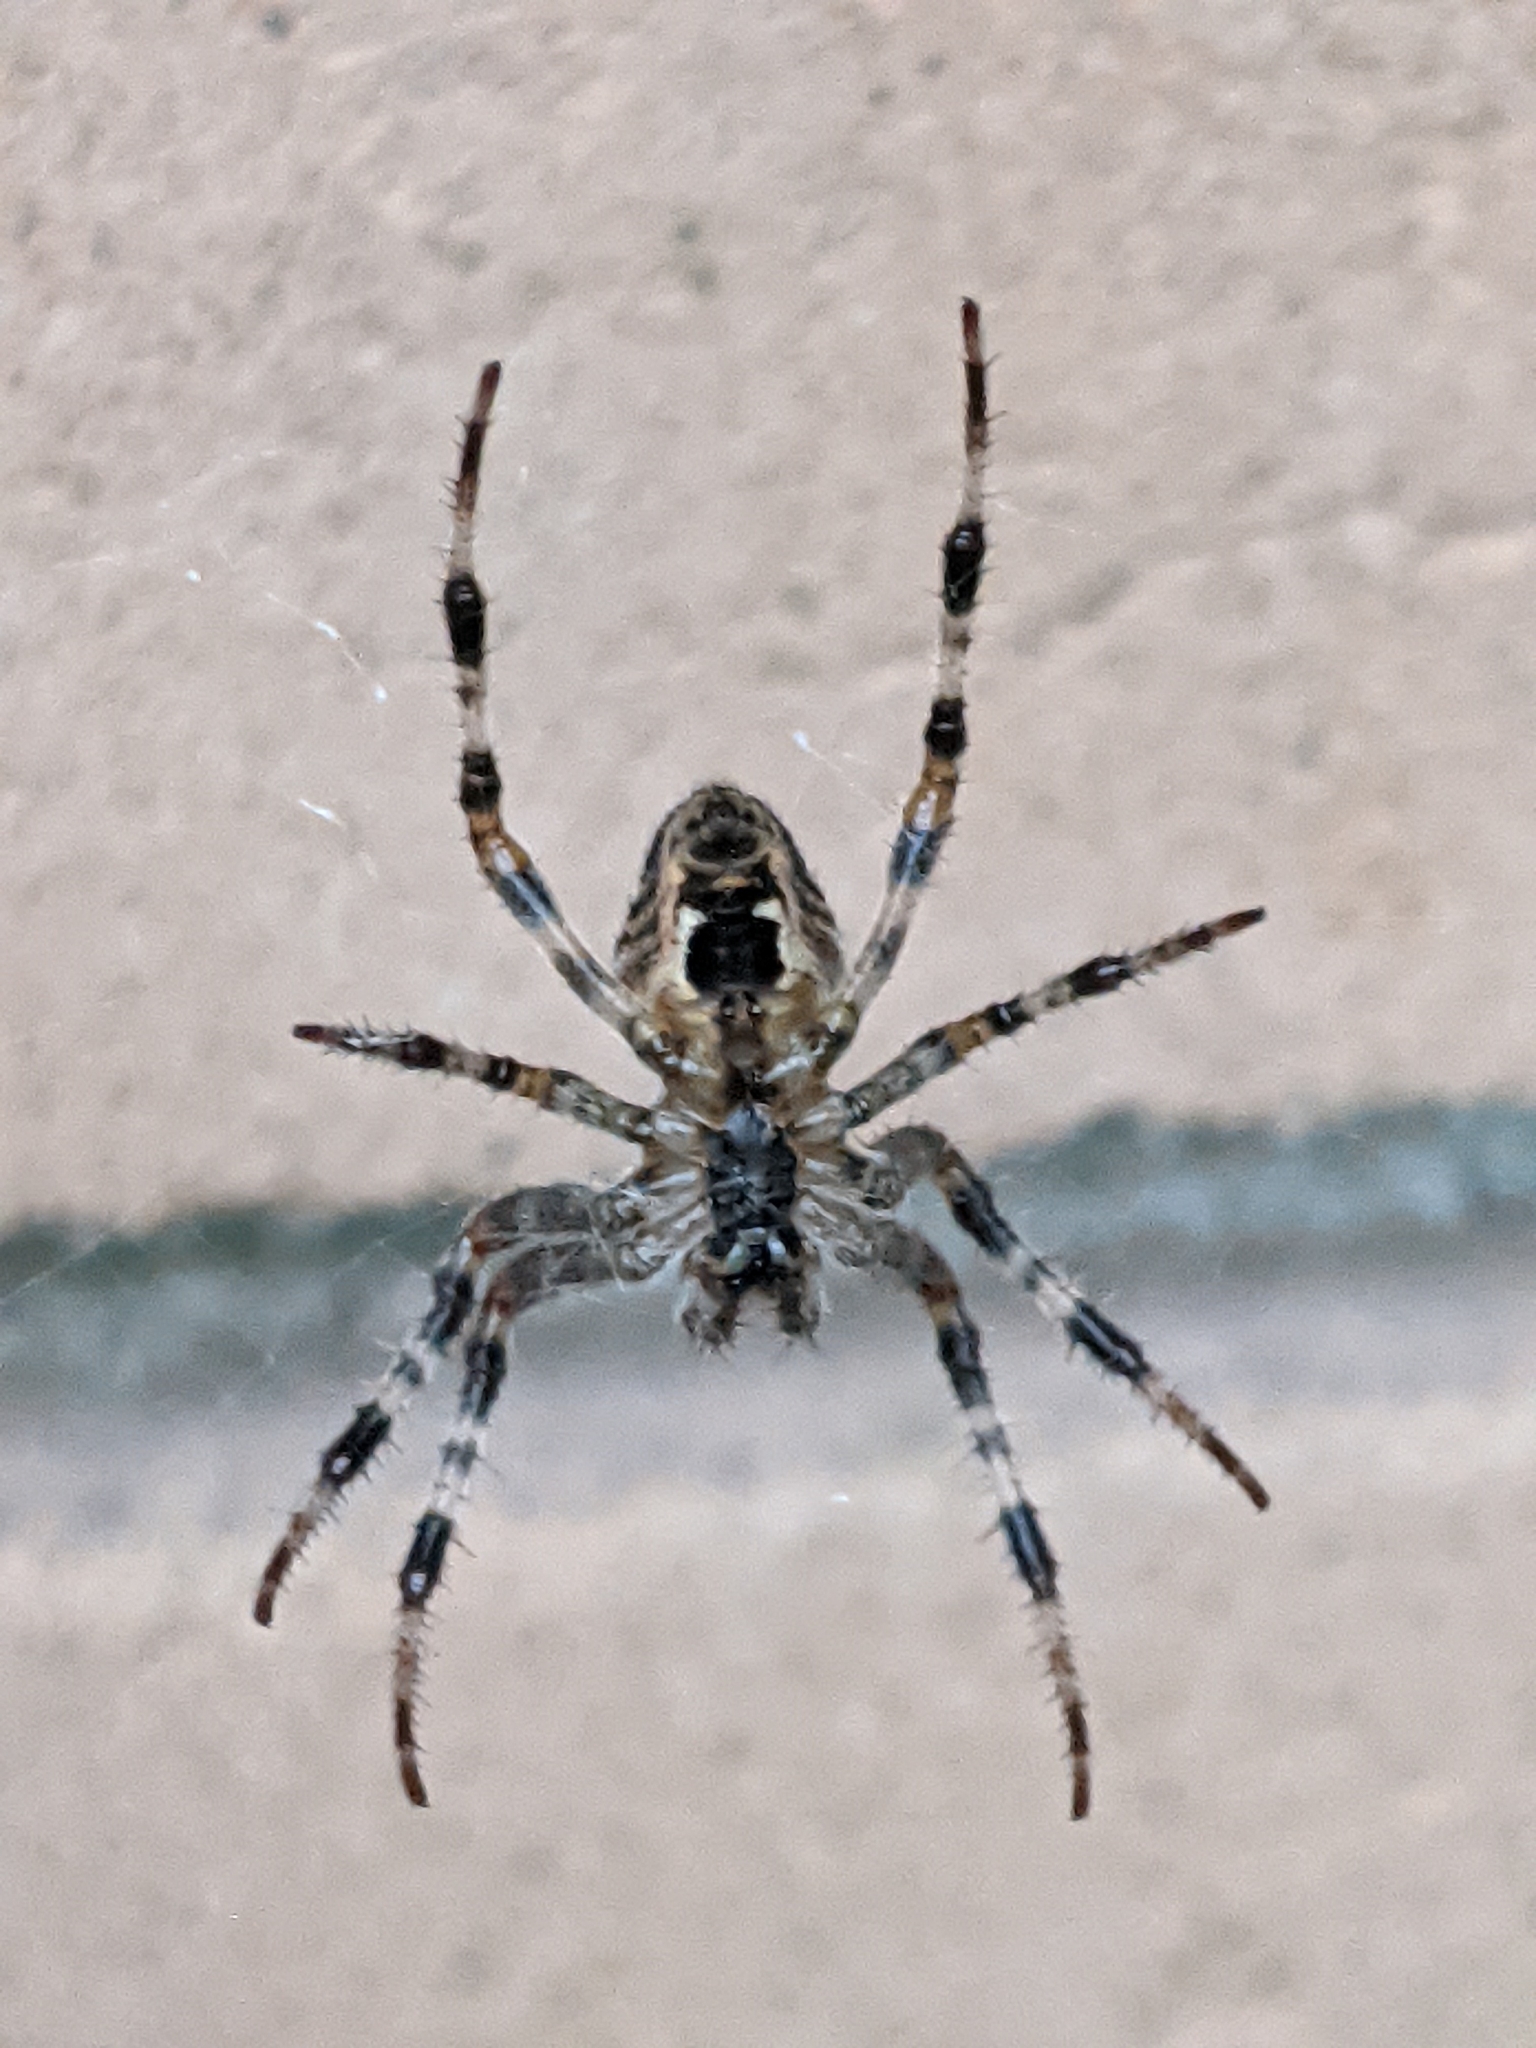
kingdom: Animalia
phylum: Arthropoda
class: Arachnida
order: Araneae
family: Araneidae
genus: Araneus
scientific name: Araneus diadematus
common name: Cross orbweaver
